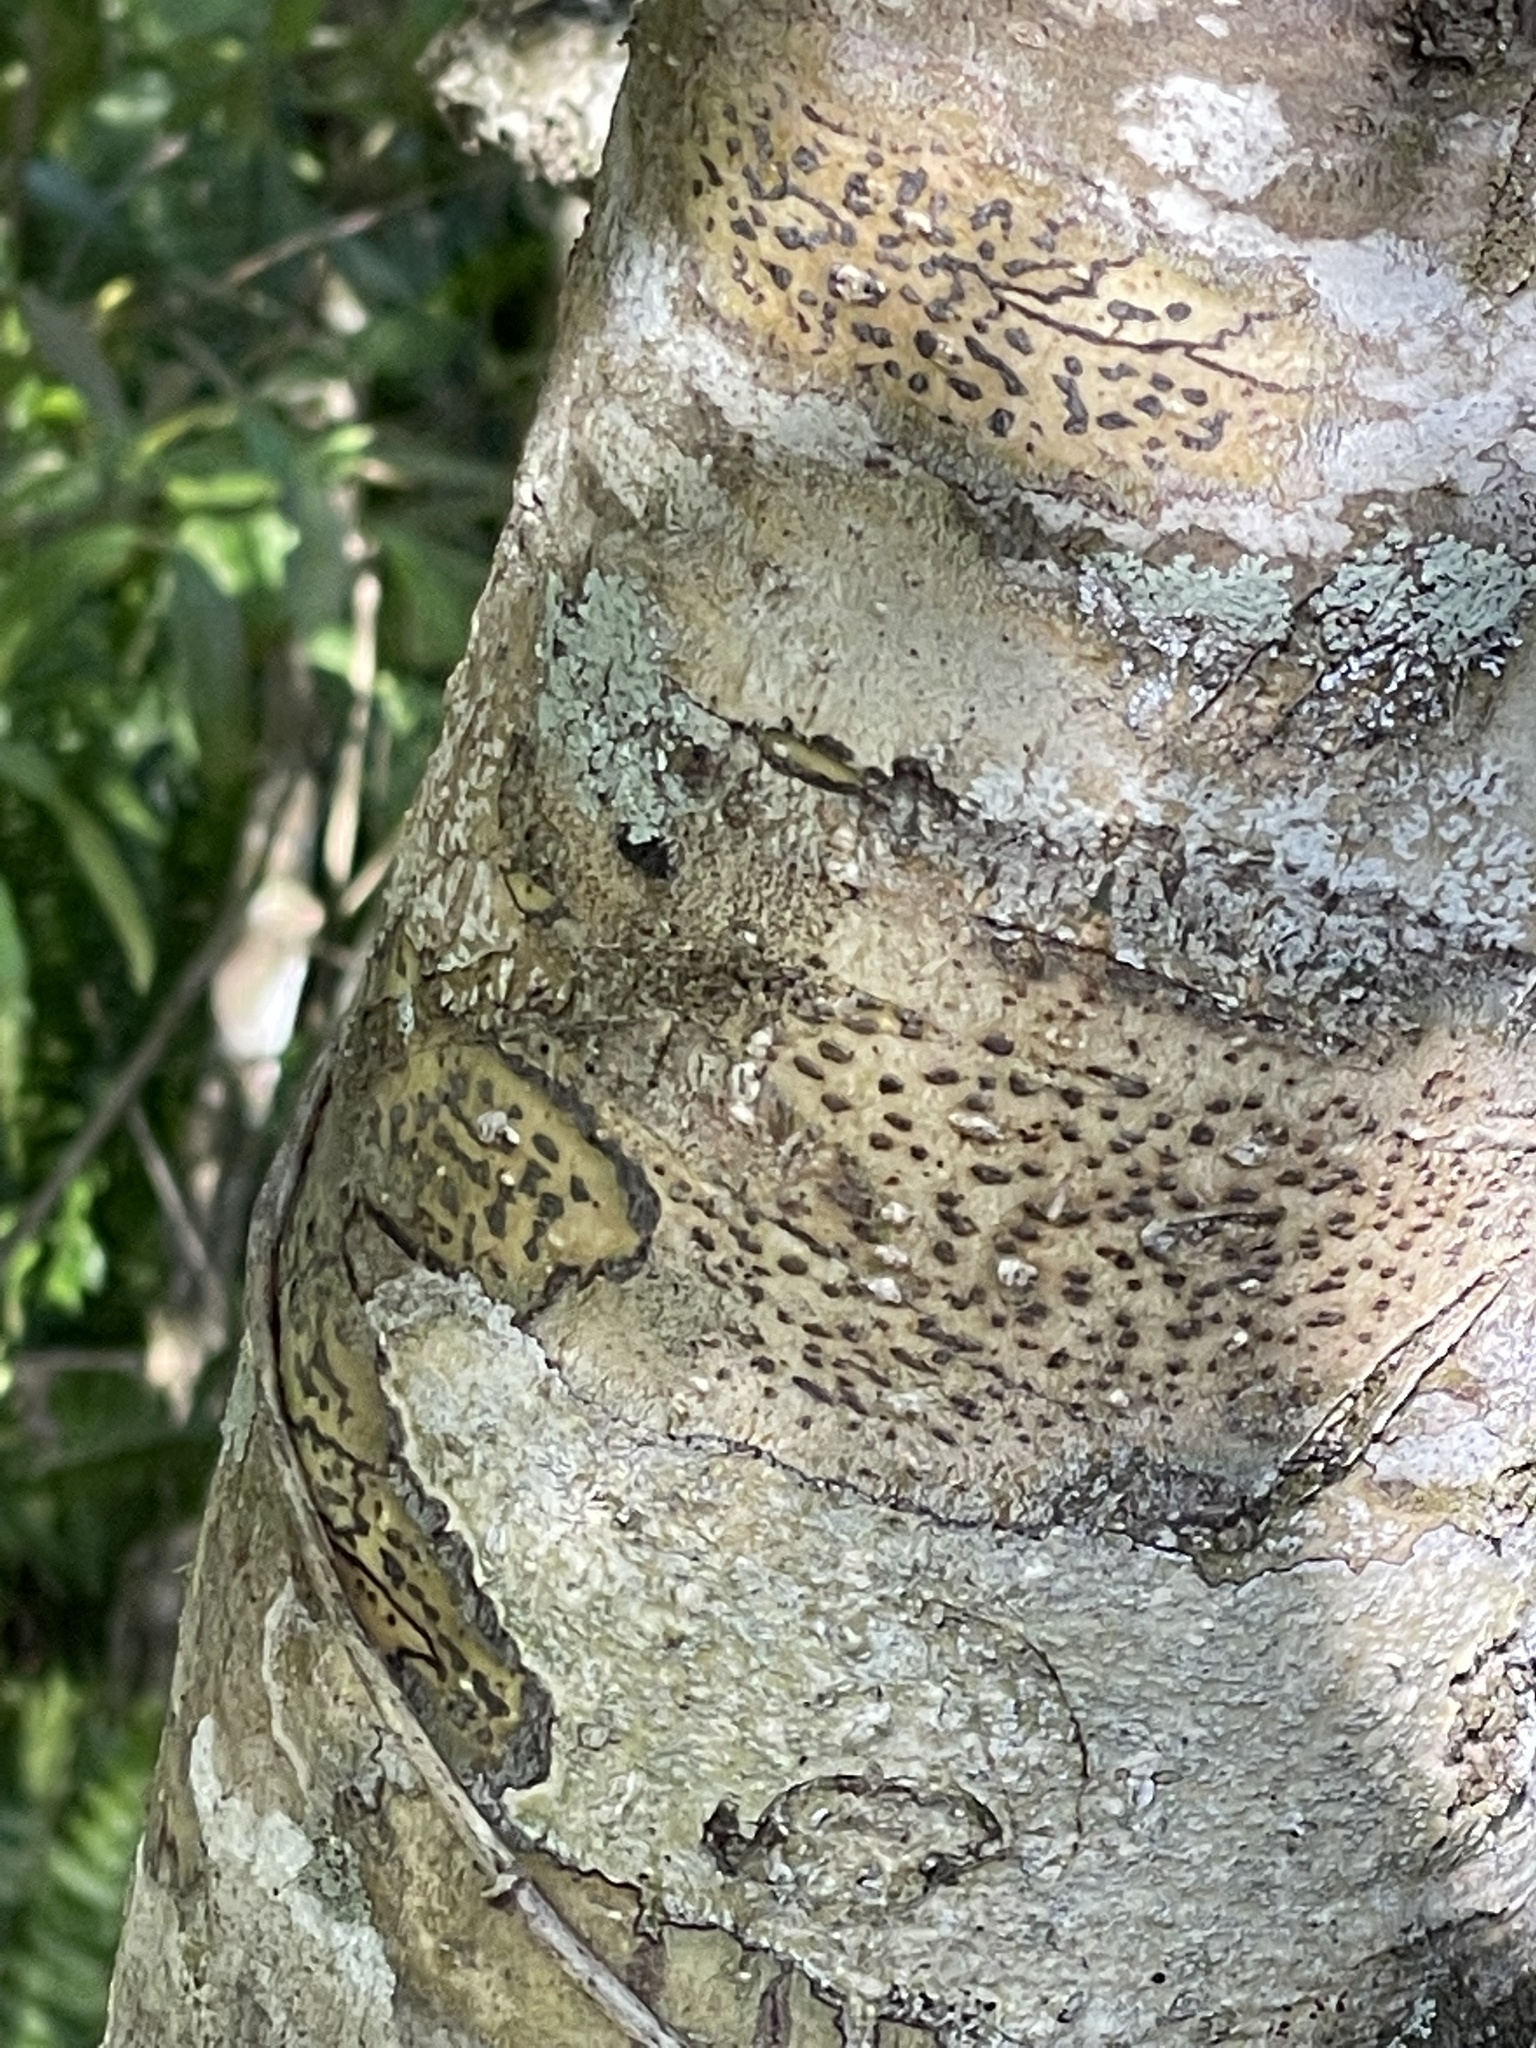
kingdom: Fungi
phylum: Ascomycota
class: Dothideomycetes
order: Trypetheliales
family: Trypetheliaceae
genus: Viridothelium
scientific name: Viridothelium virens
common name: Speckled blister lichen
